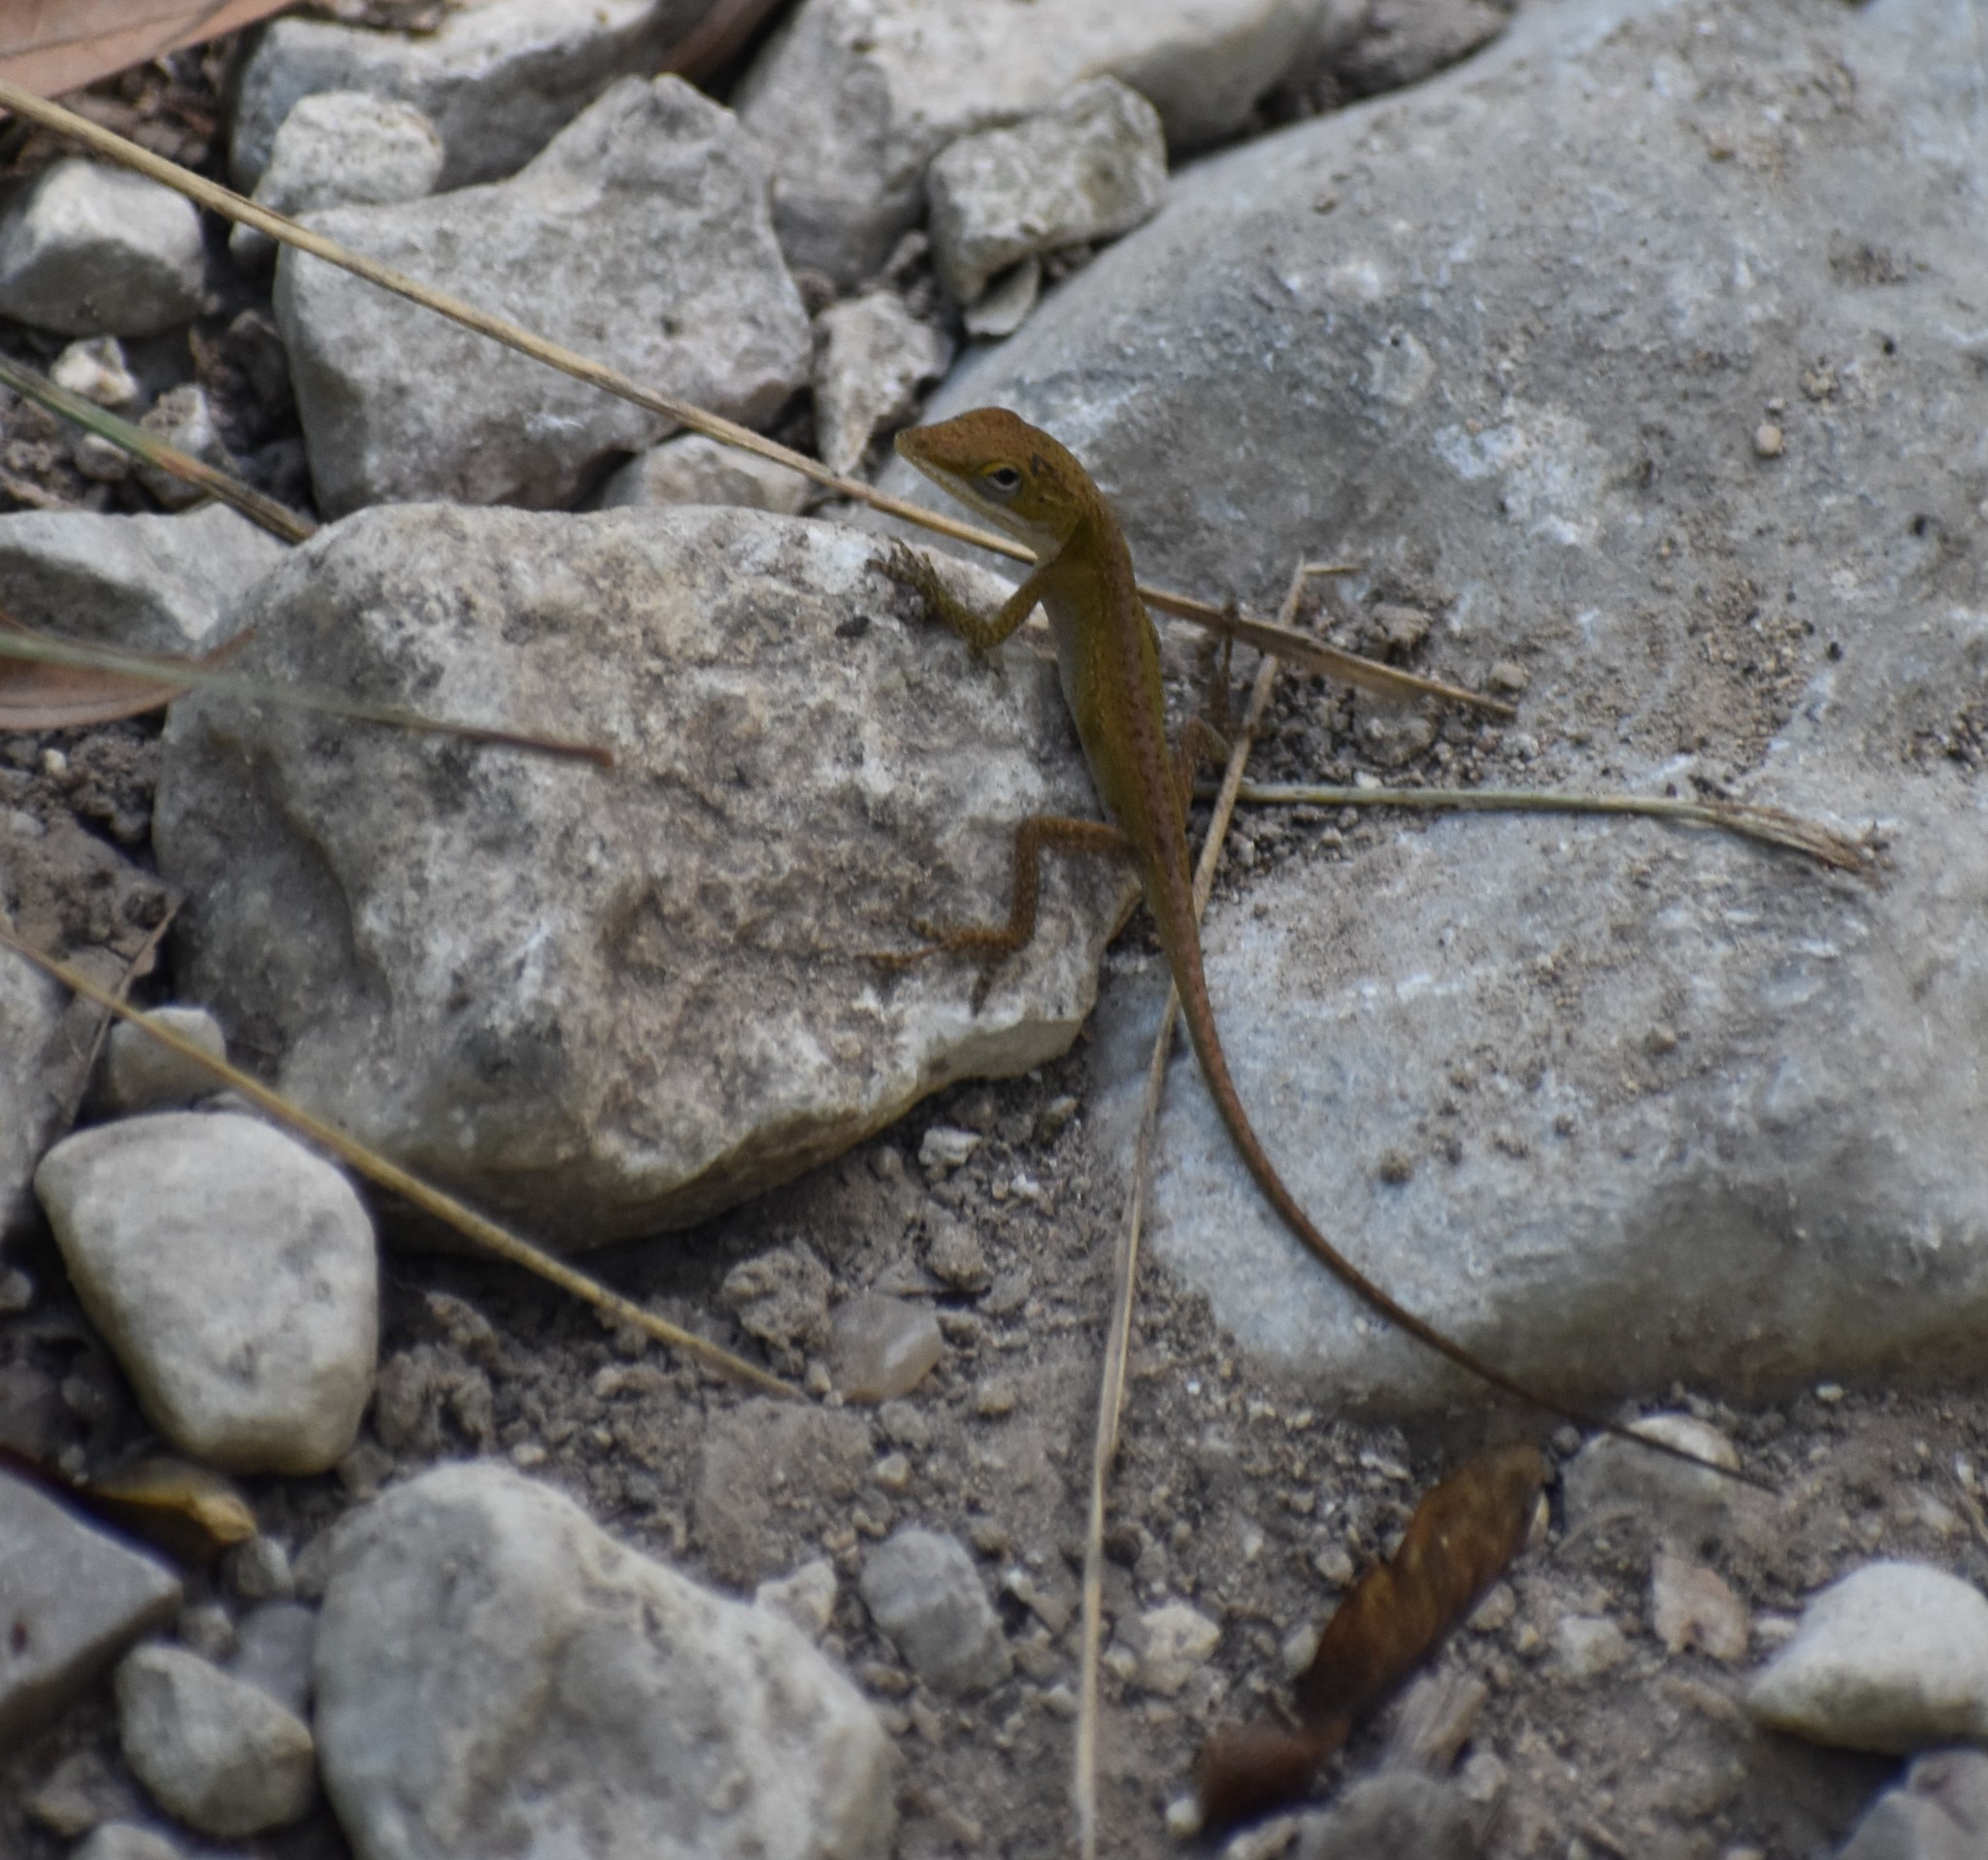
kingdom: Animalia
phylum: Chordata
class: Squamata
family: Dactyloidae
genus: Anolis
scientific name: Anolis carolinensis
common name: Green anole
